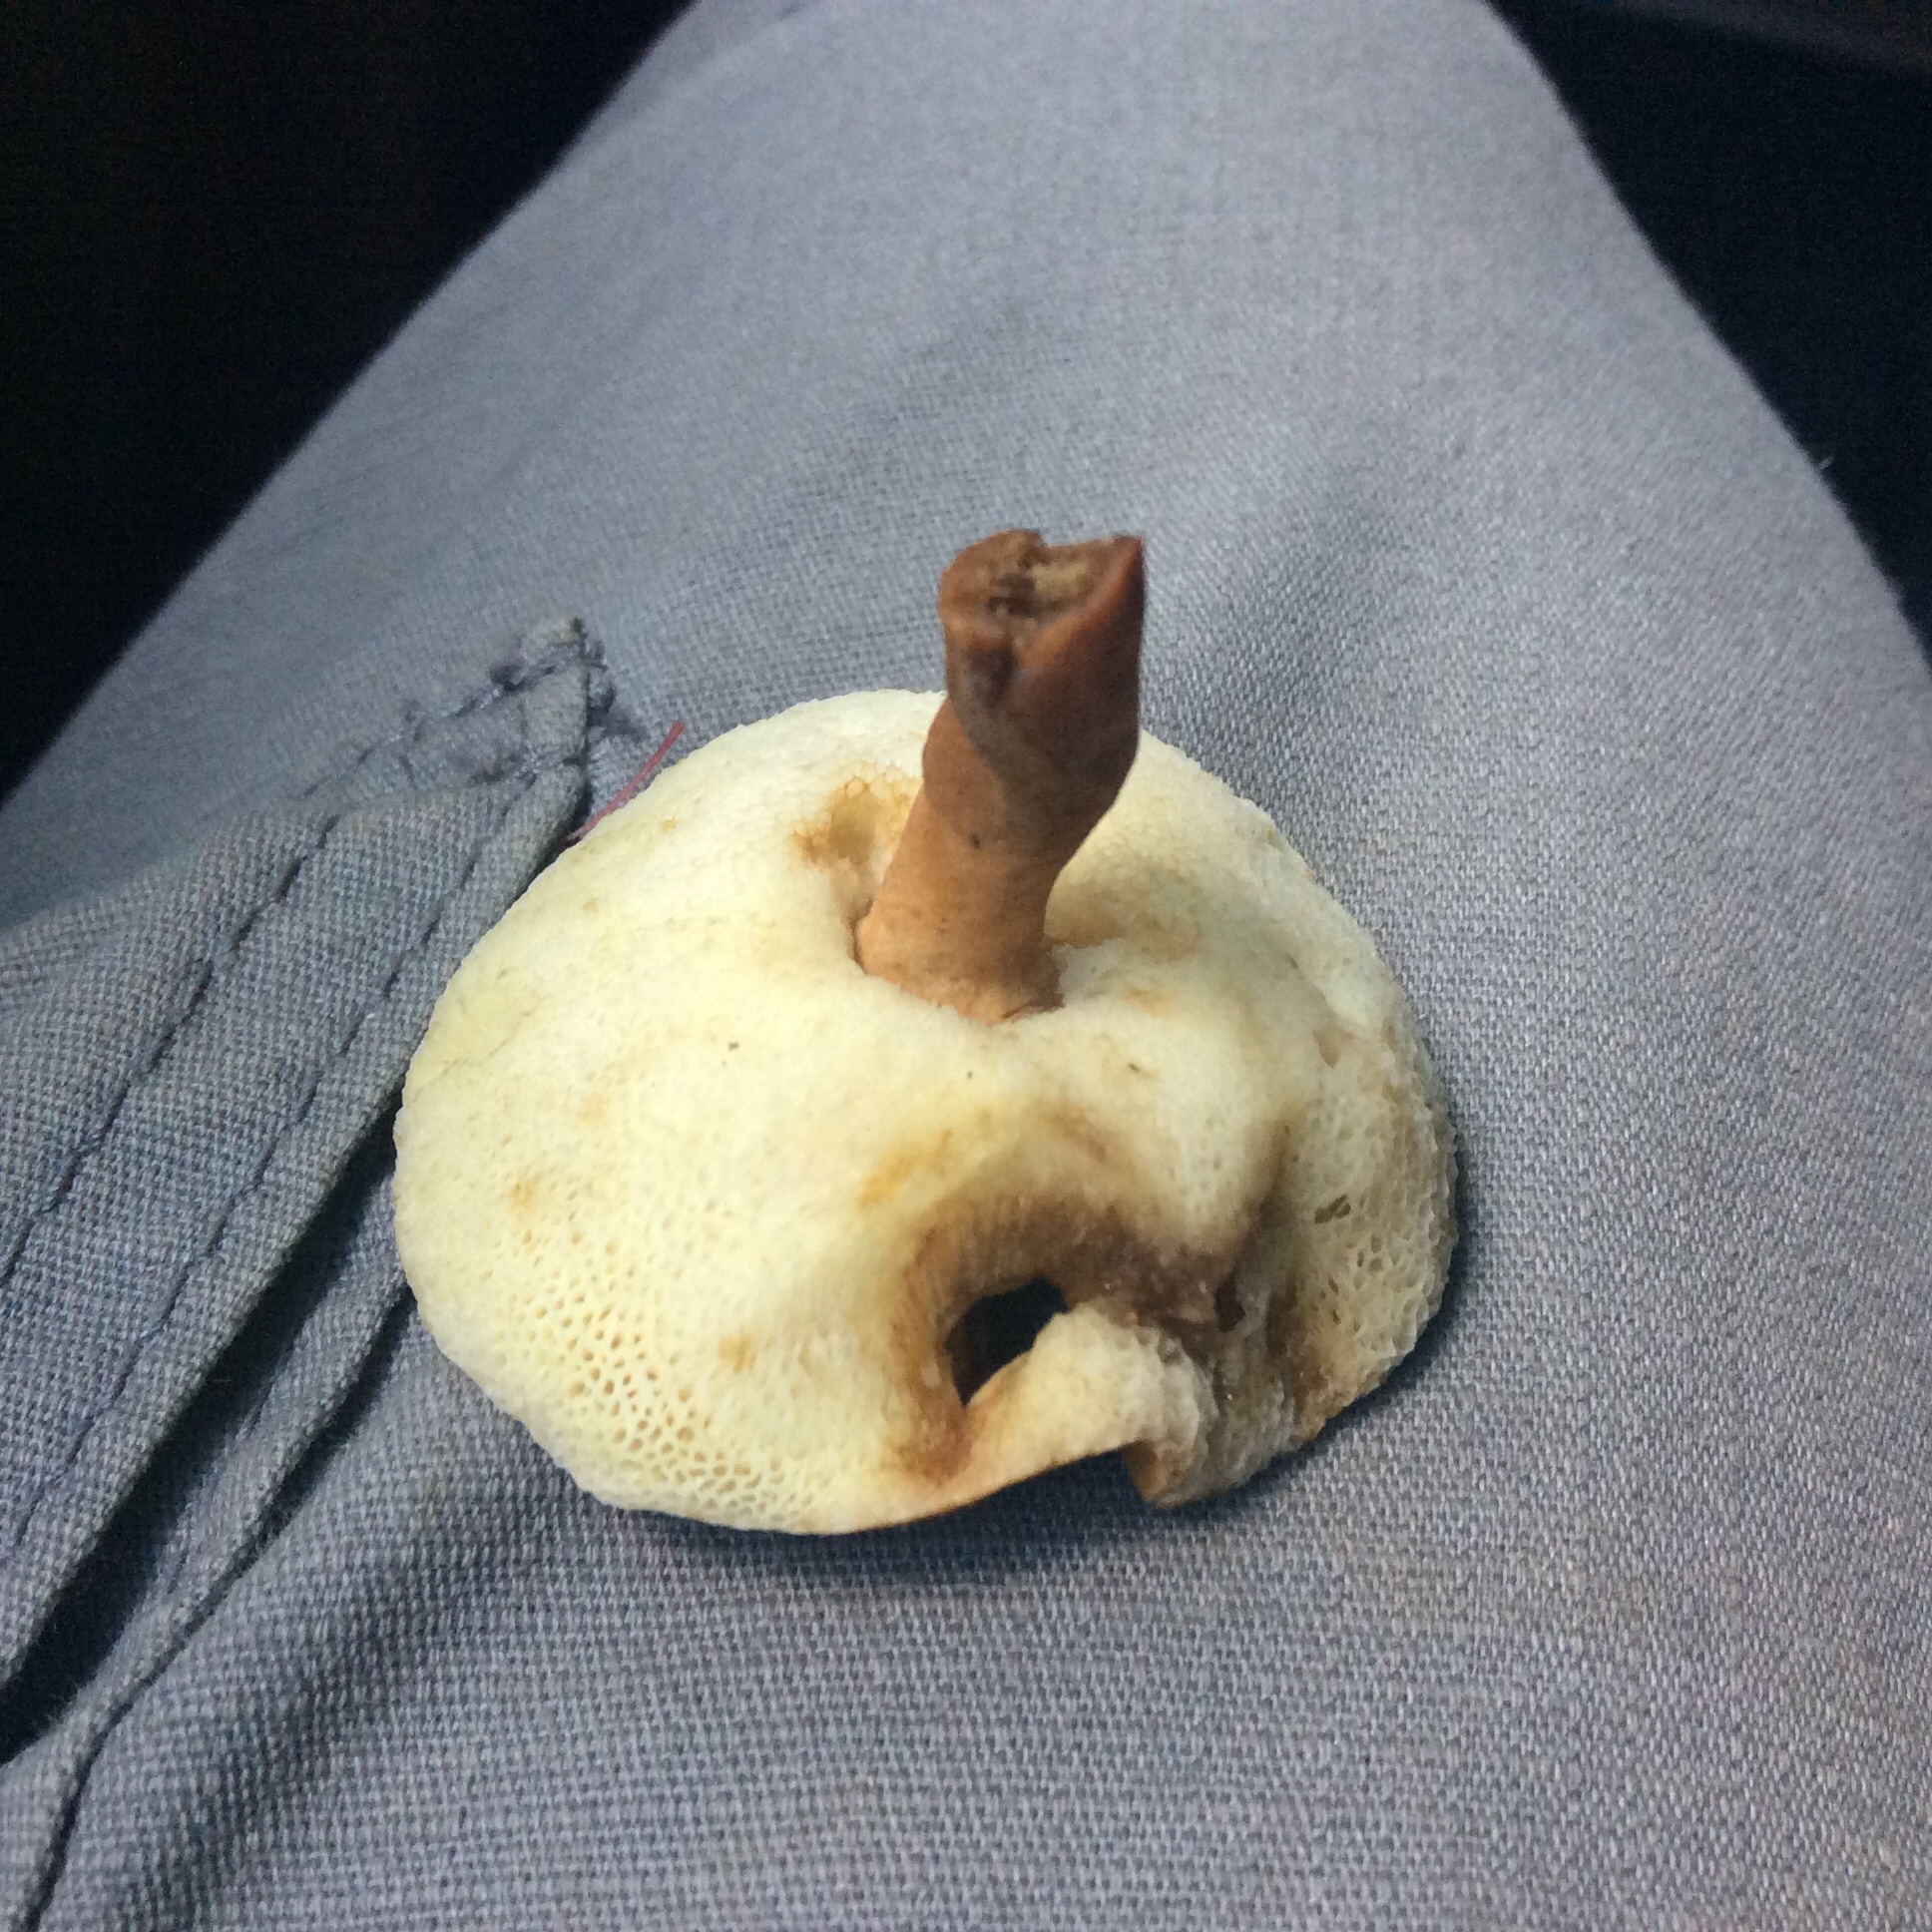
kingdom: Fungi
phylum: Basidiomycota
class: Agaricomycetes
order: Boletales
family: Gyroporaceae
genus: Gyroporus
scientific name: Gyroporus castaneus
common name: Chestnut bolete
